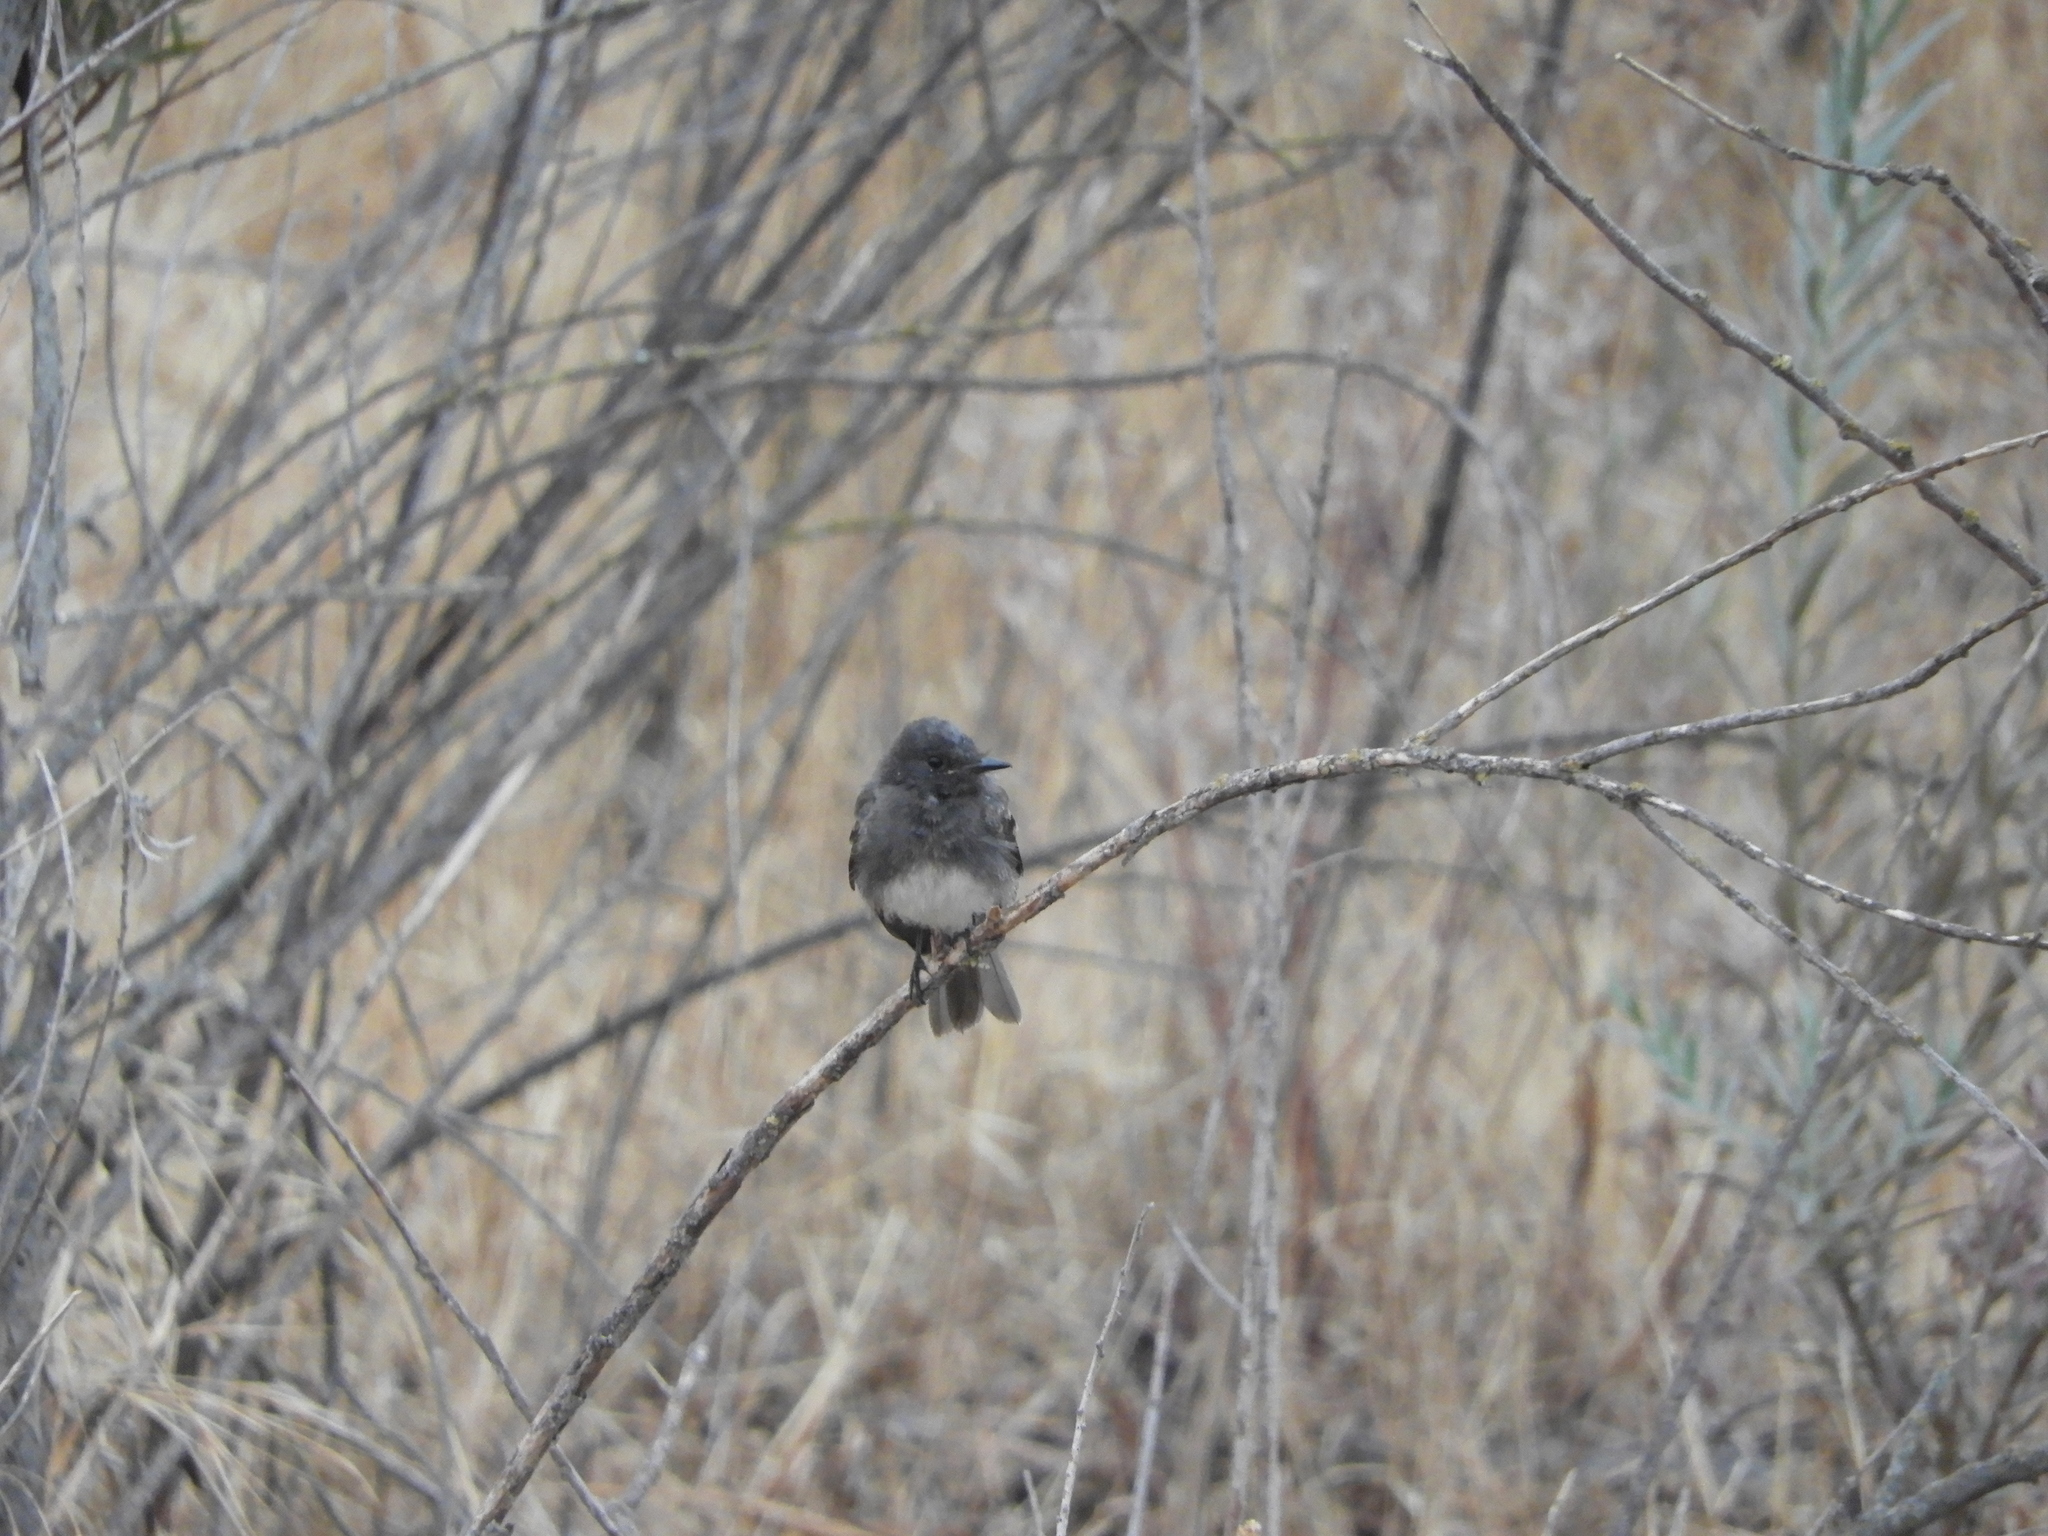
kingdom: Animalia
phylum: Chordata
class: Aves
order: Passeriformes
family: Tyrannidae
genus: Sayornis
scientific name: Sayornis nigricans
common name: Black phoebe
